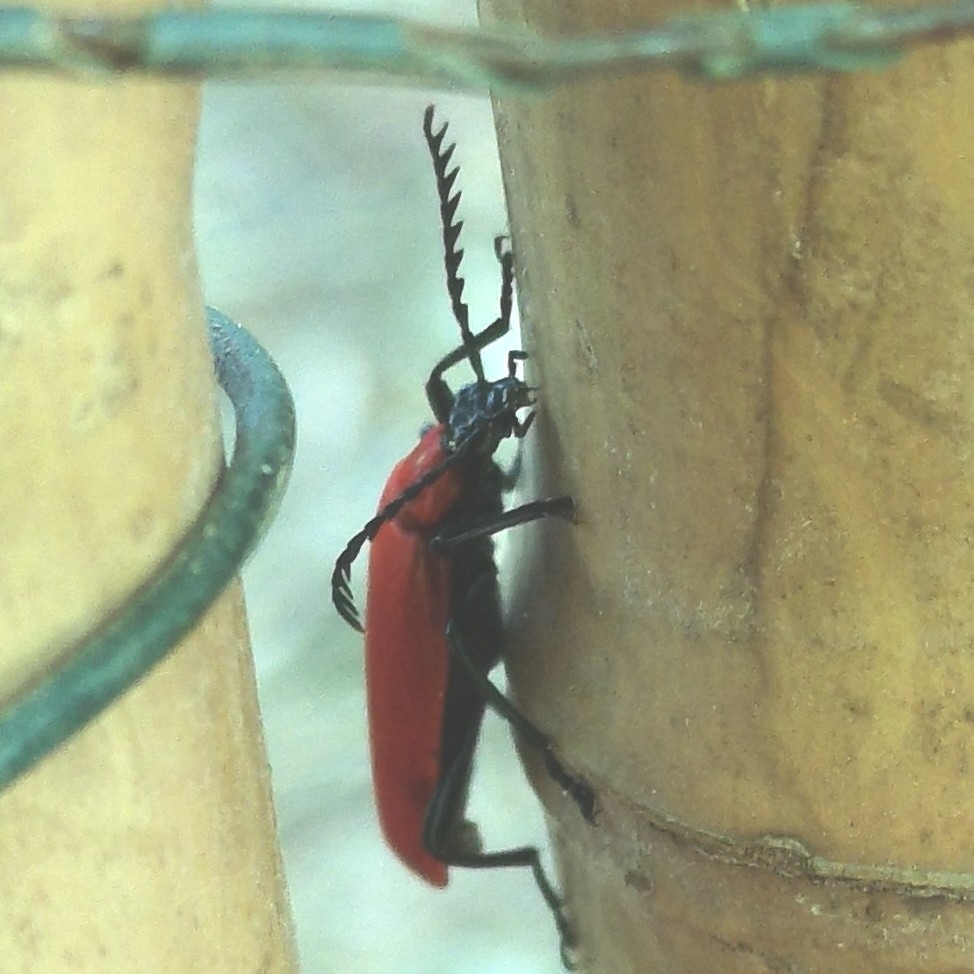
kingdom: Animalia
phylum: Arthropoda
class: Insecta
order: Coleoptera
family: Pyrochroidae
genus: Pyrochroa
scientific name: Pyrochroa coccinea
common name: Black-headed cardinal beetle
